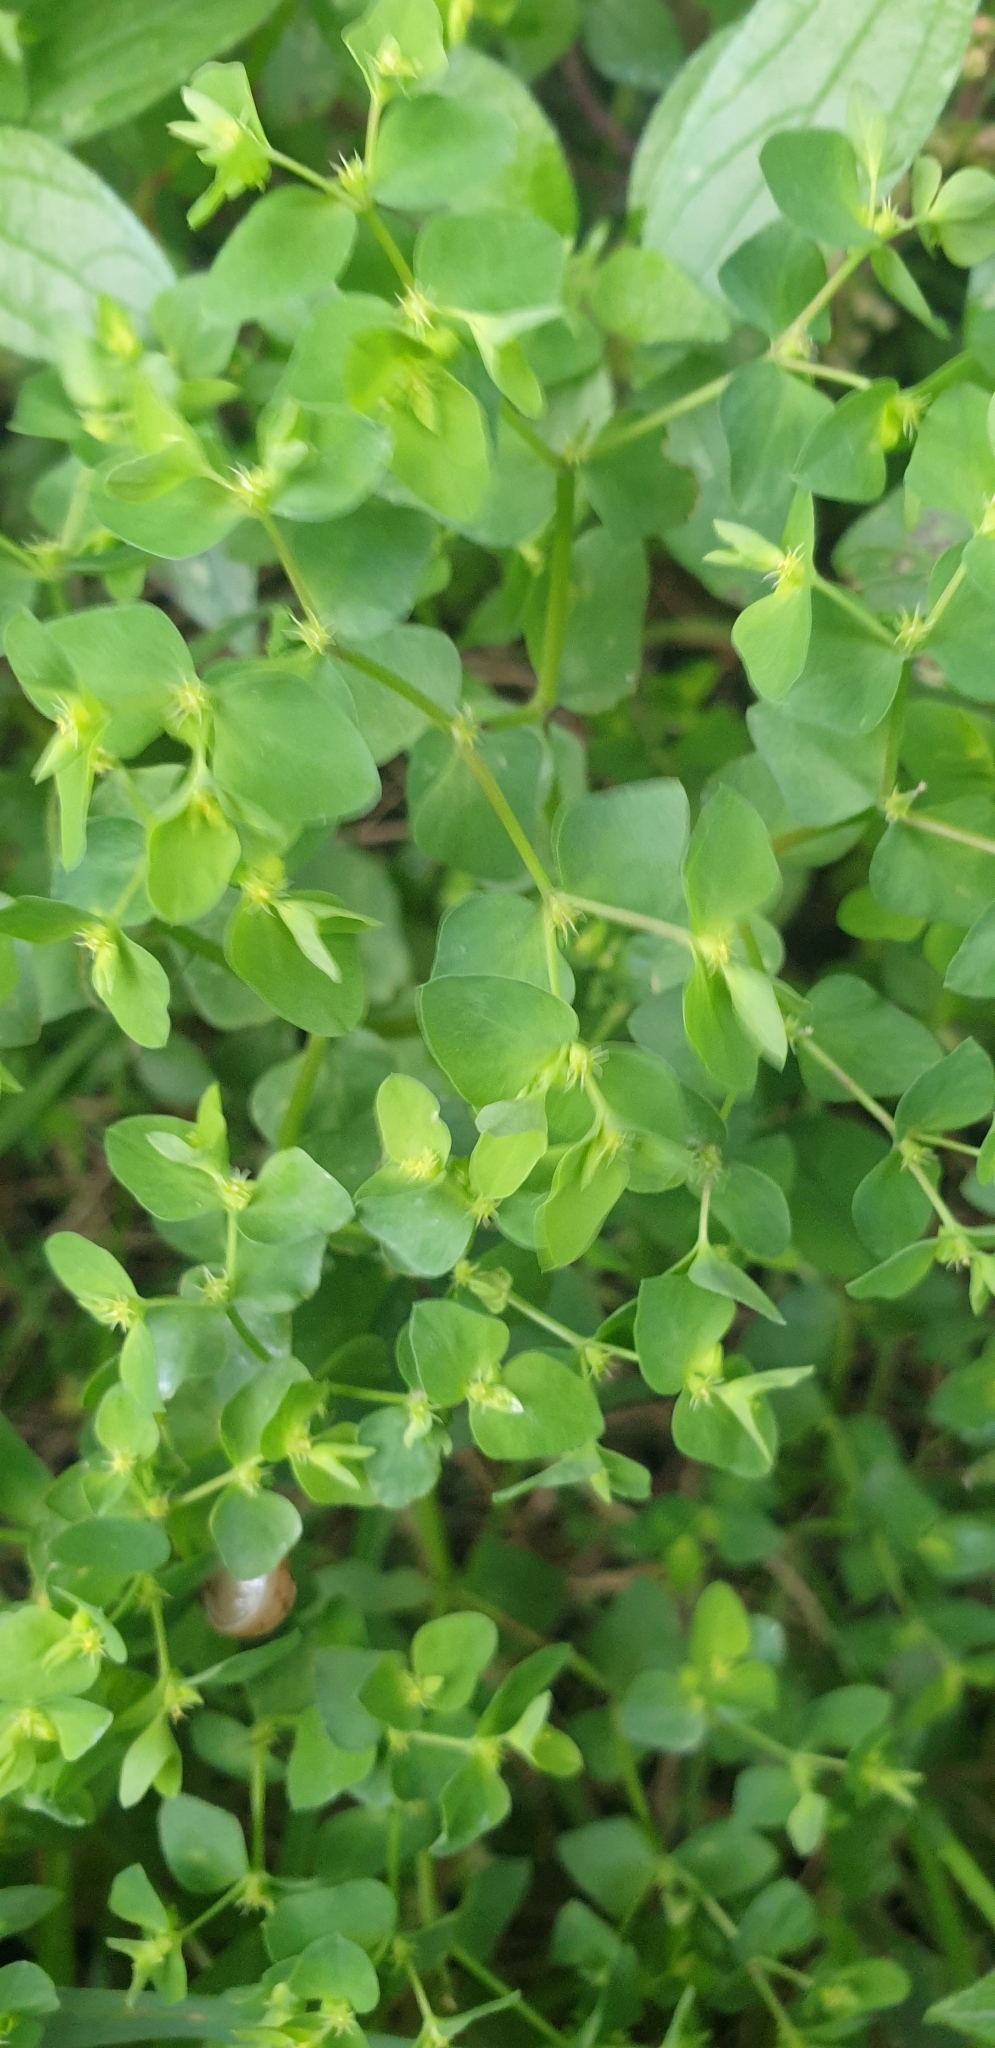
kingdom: Plantae
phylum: Tracheophyta
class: Magnoliopsida
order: Malpighiales
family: Euphorbiaceae
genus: Euphorbia
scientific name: Euphorbia peplus
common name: Petty spurge
